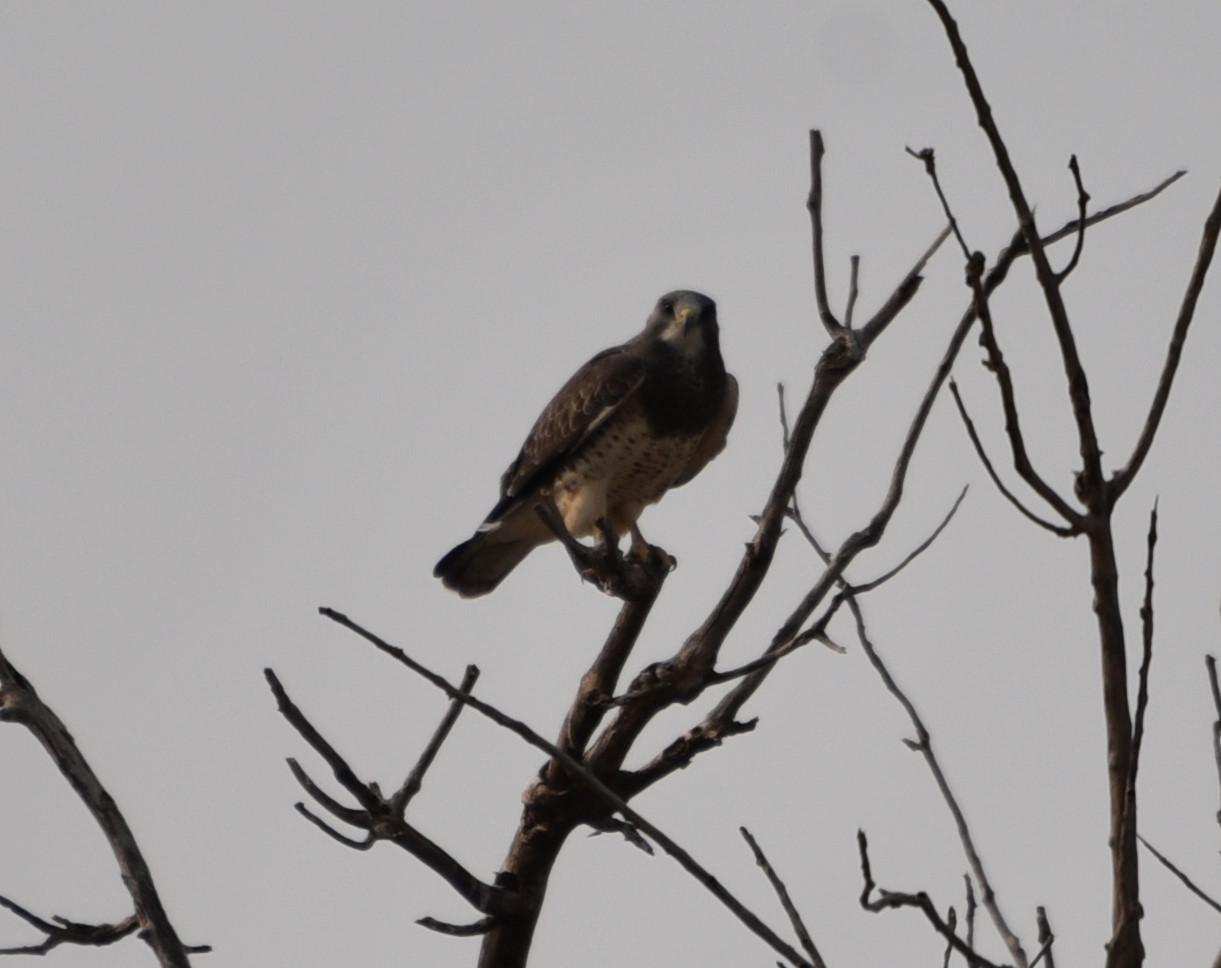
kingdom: Animalia
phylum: Chordata
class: Aves
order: Accipitriformes
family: Accipitridae
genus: Buteo
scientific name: Buteo swainsoni
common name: Swainson's hawk
